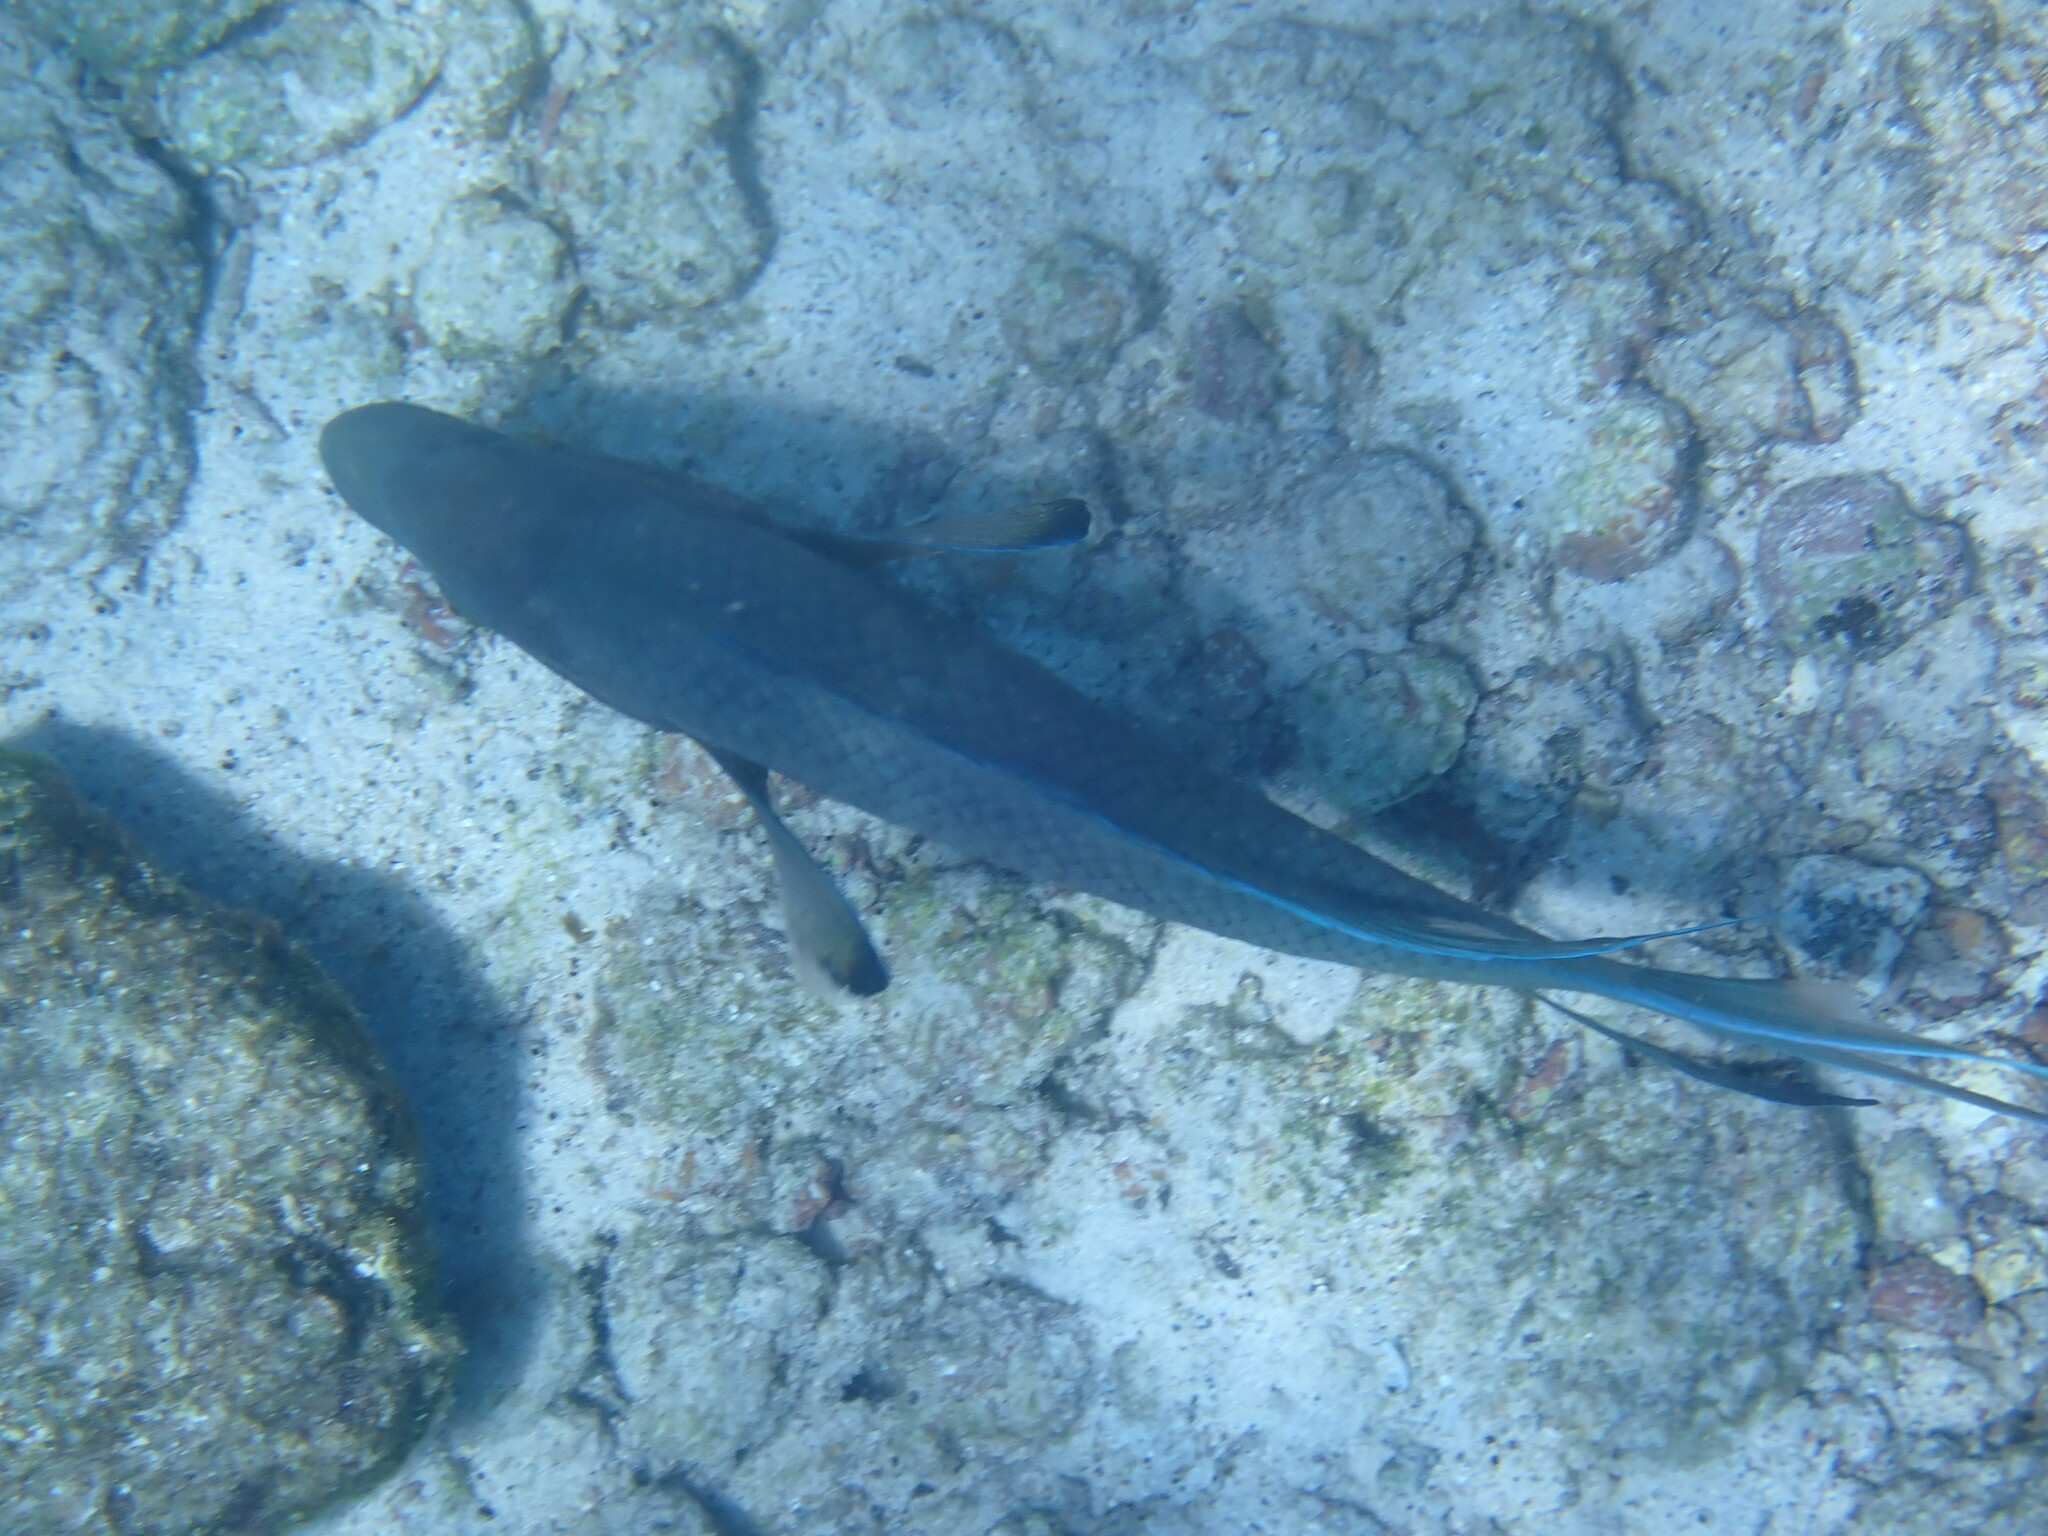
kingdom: Animalia
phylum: Chordata
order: Perciformes
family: Labridae
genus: Bodianus
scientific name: Bodianus diplotaenia
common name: Mexican hogfish
